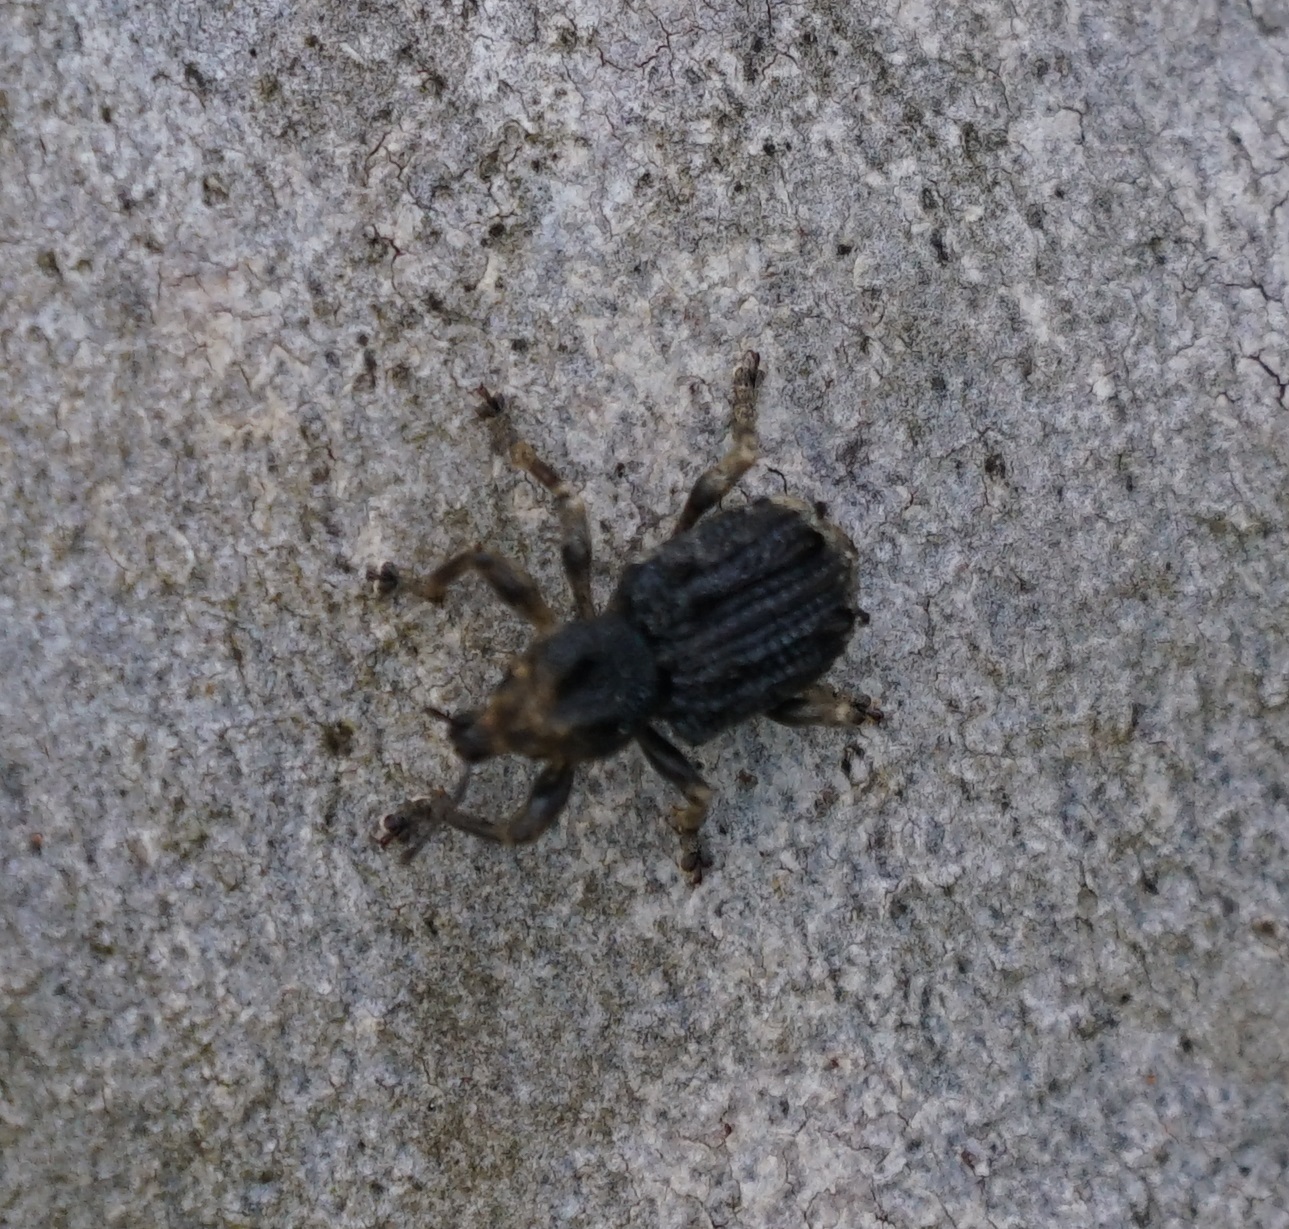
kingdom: Animalia
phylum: Arthropoda
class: Insecta
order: Coleoptera
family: Curculionidae
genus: Aades
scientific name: Aades cultratus
